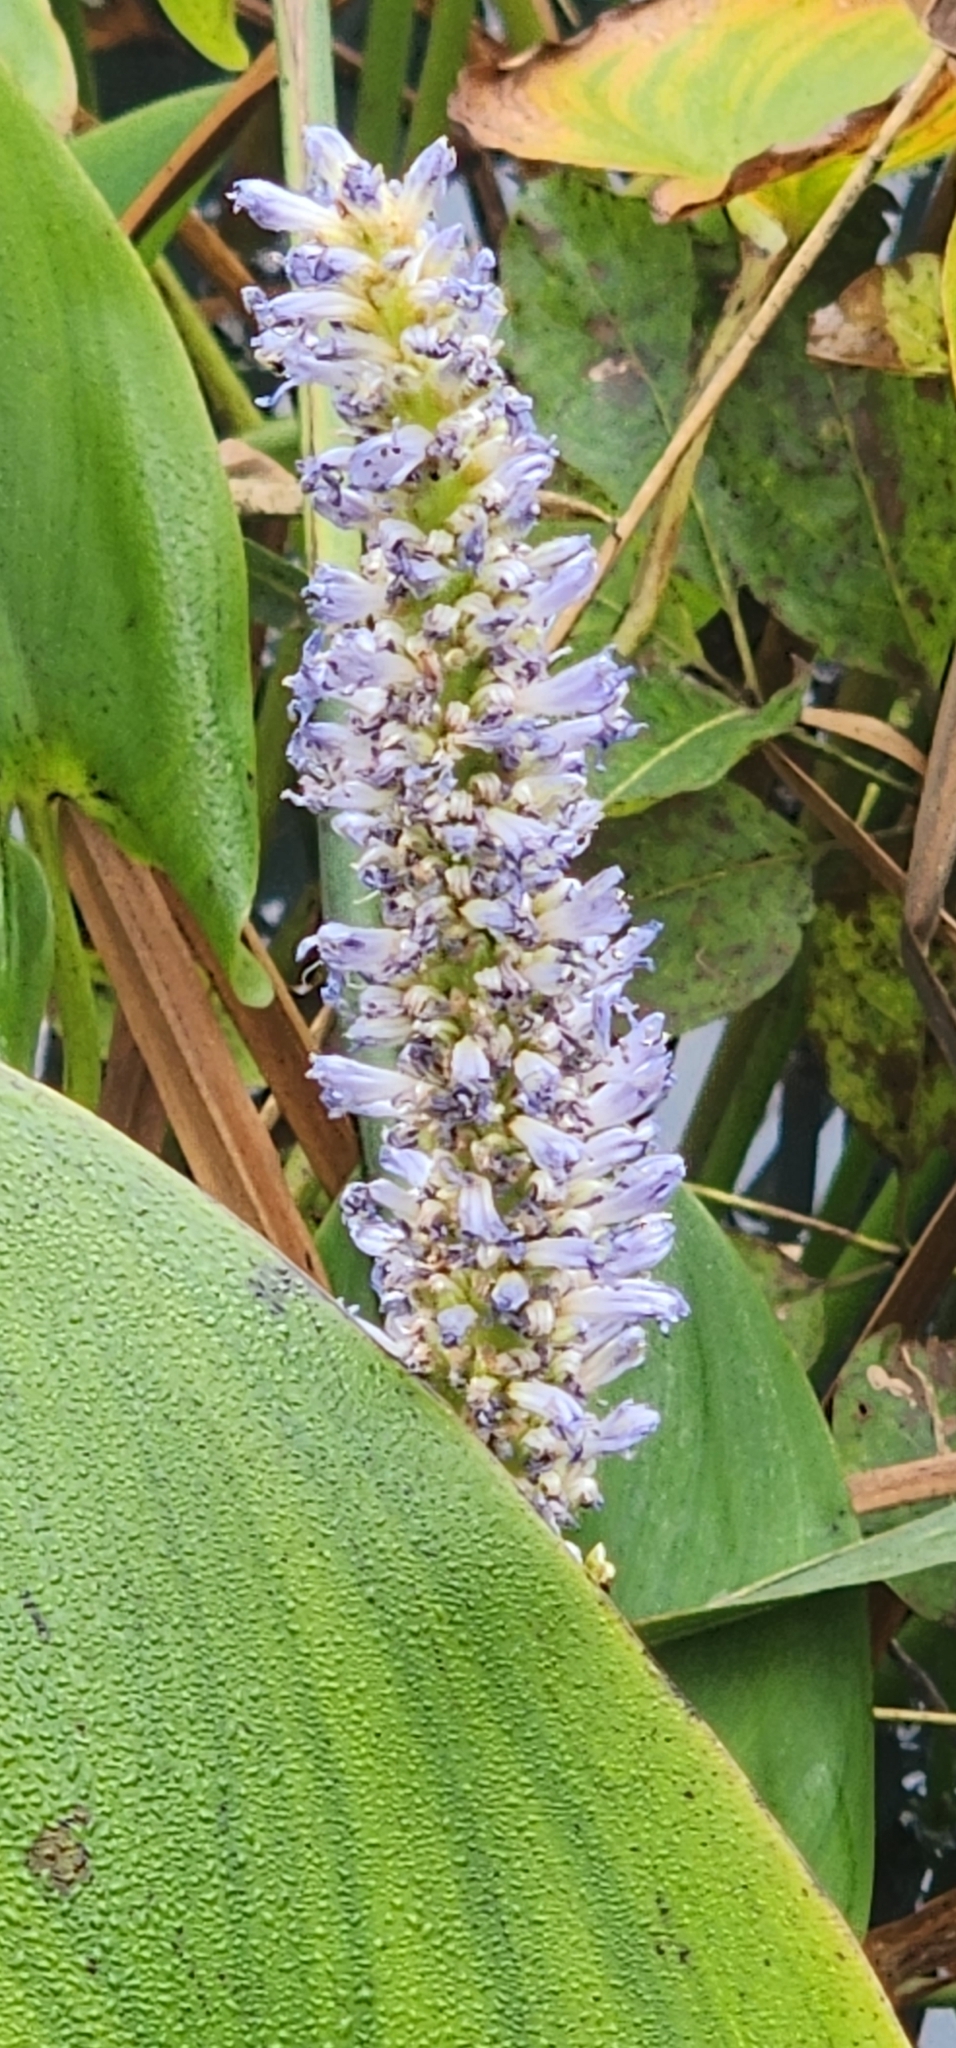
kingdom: Plantae
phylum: Tracheophyta
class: Liliopsida
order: Commelinales
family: Pontederiaceae
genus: Pontederia
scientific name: Pontederia cordata
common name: Pickerelweed
